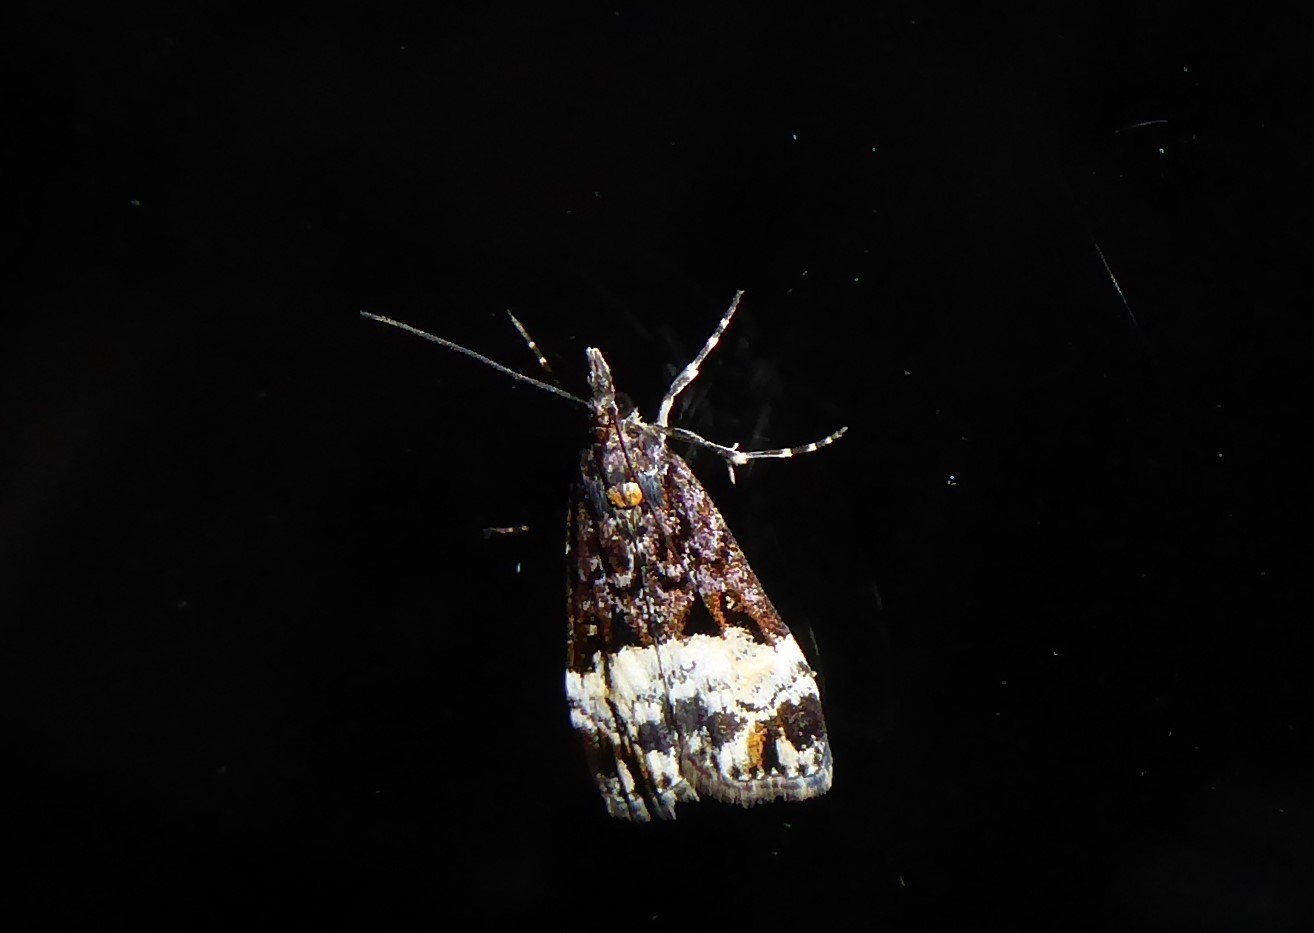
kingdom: Animalia
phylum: Arthropoda
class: Insecta
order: Lepidoptera
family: Crambidae
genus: Scoparia
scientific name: Scoparia minusculalis
